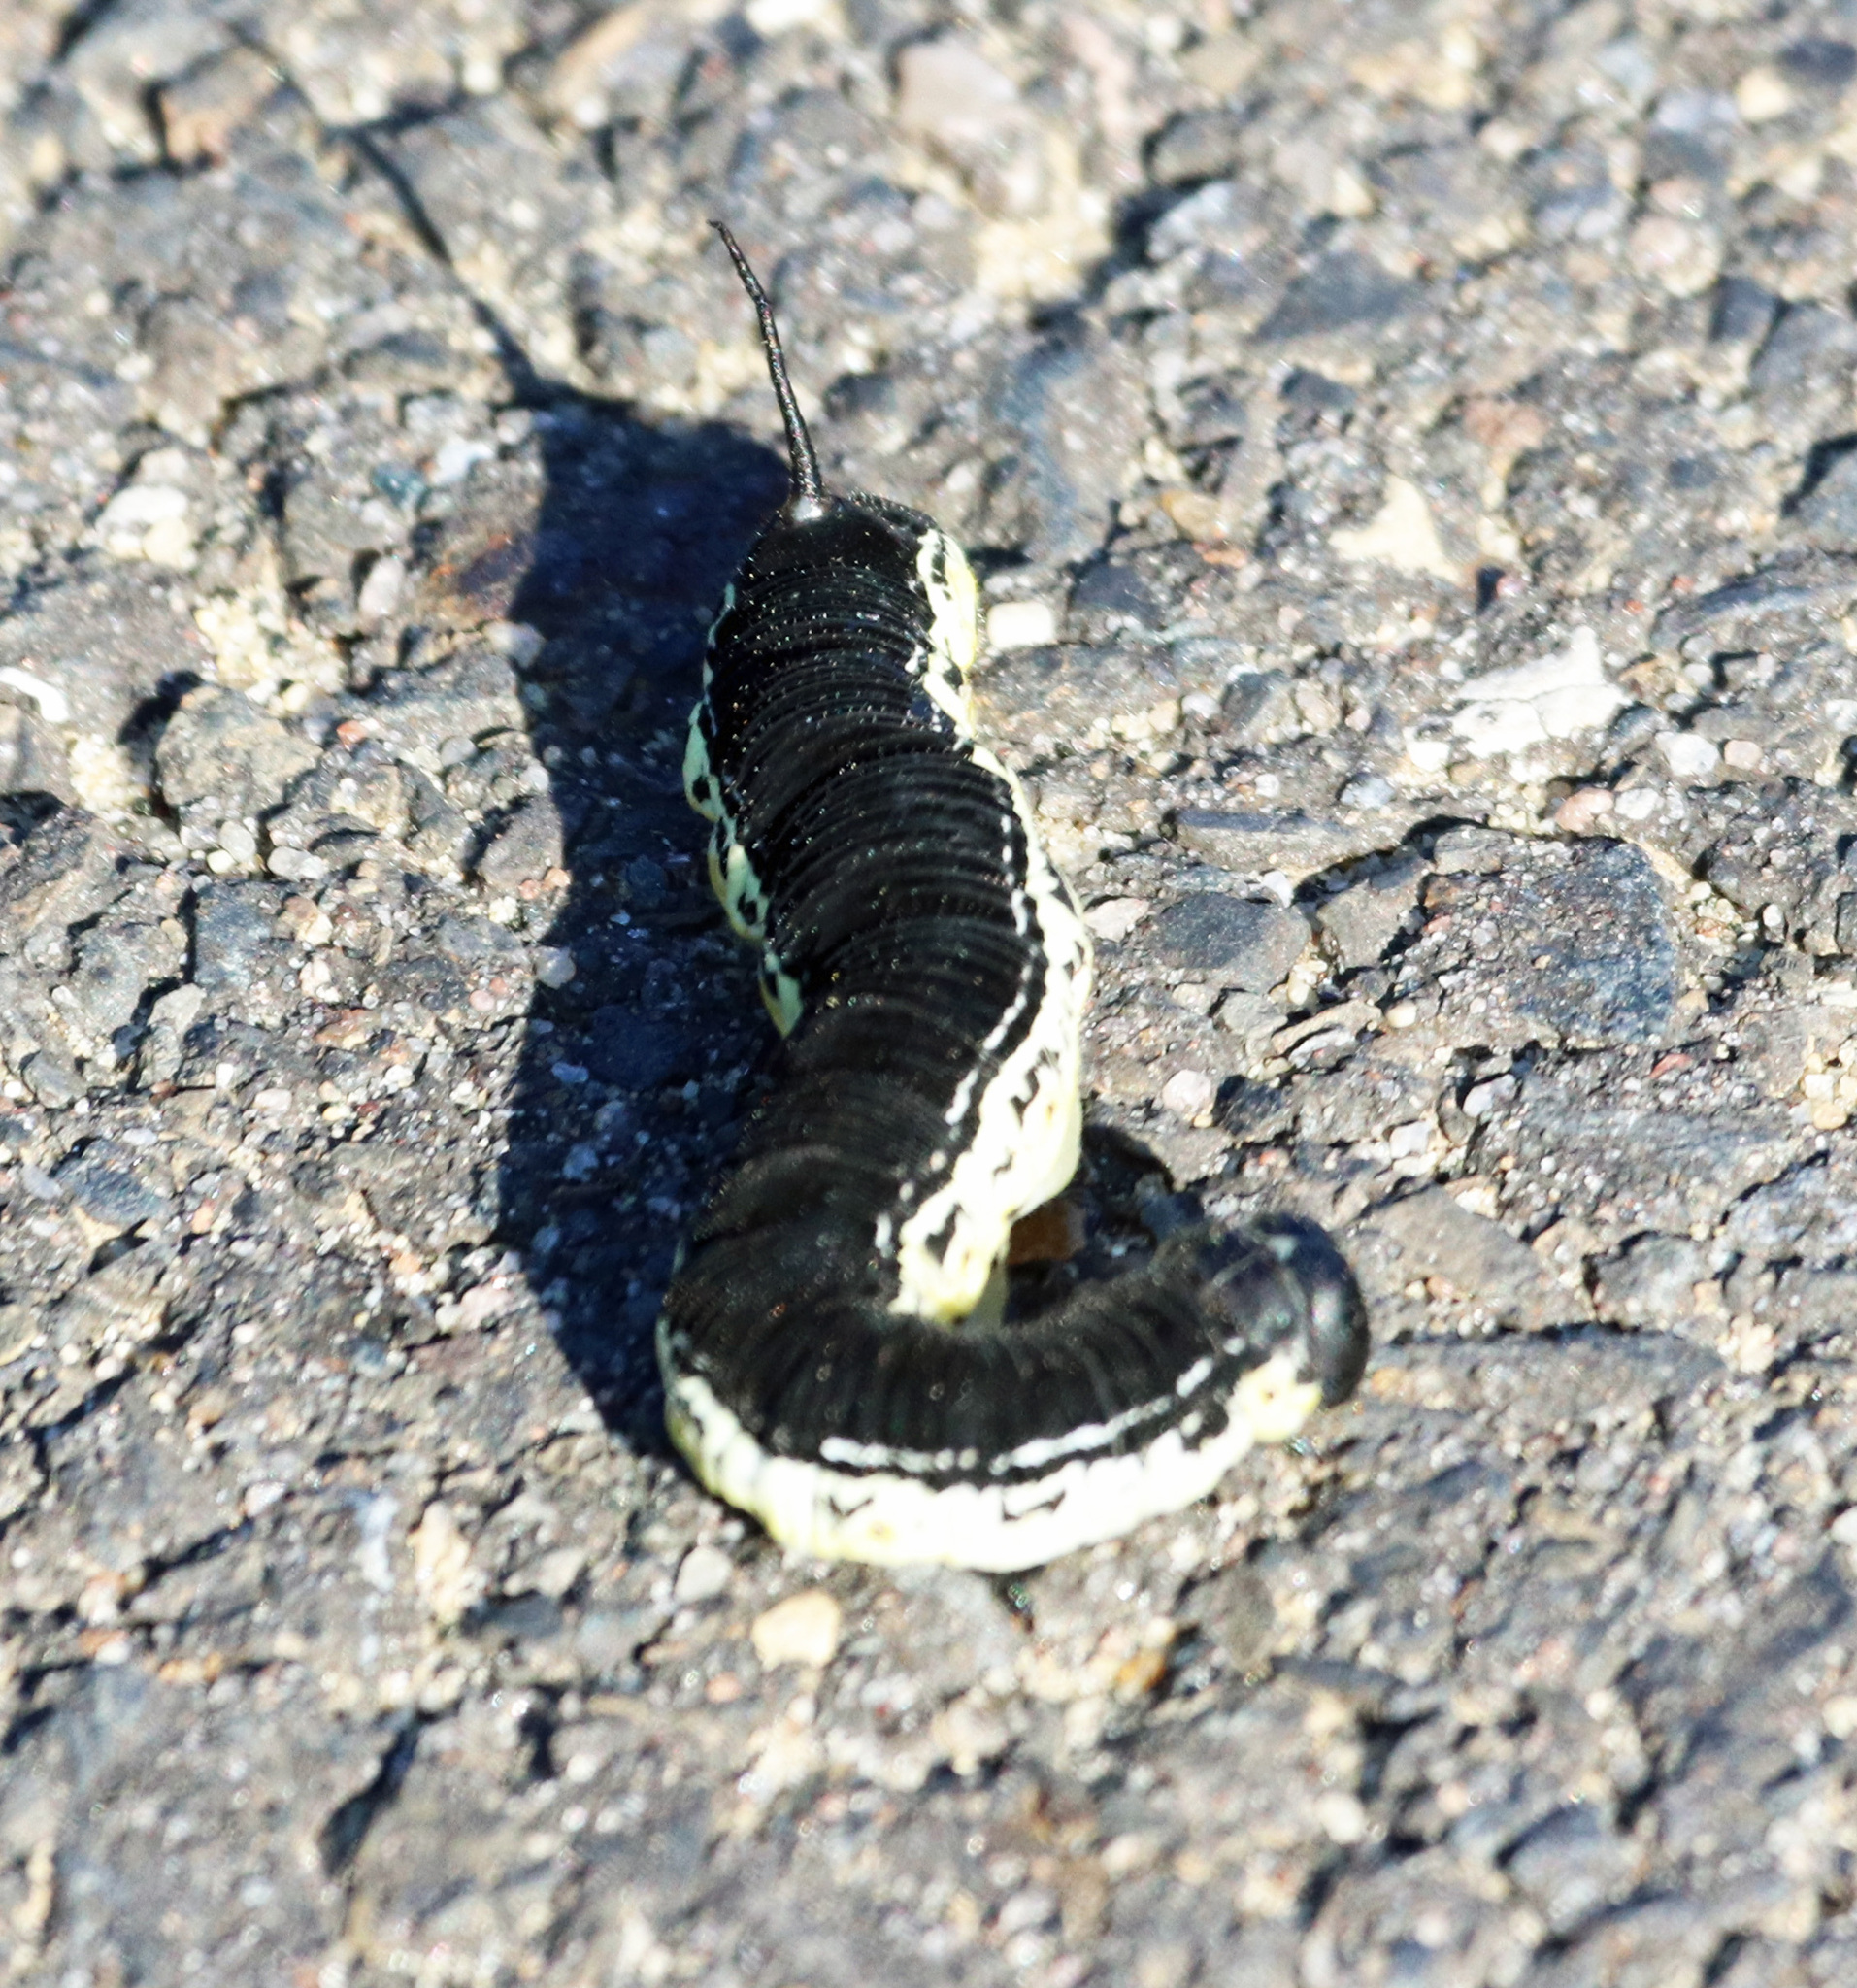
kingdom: Animalia
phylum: Arthropoda
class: Insecta
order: Lepidoptera
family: Sphingidae
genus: Ceratomia
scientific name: Ceratomia catalpae
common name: Catalpa hornworm
